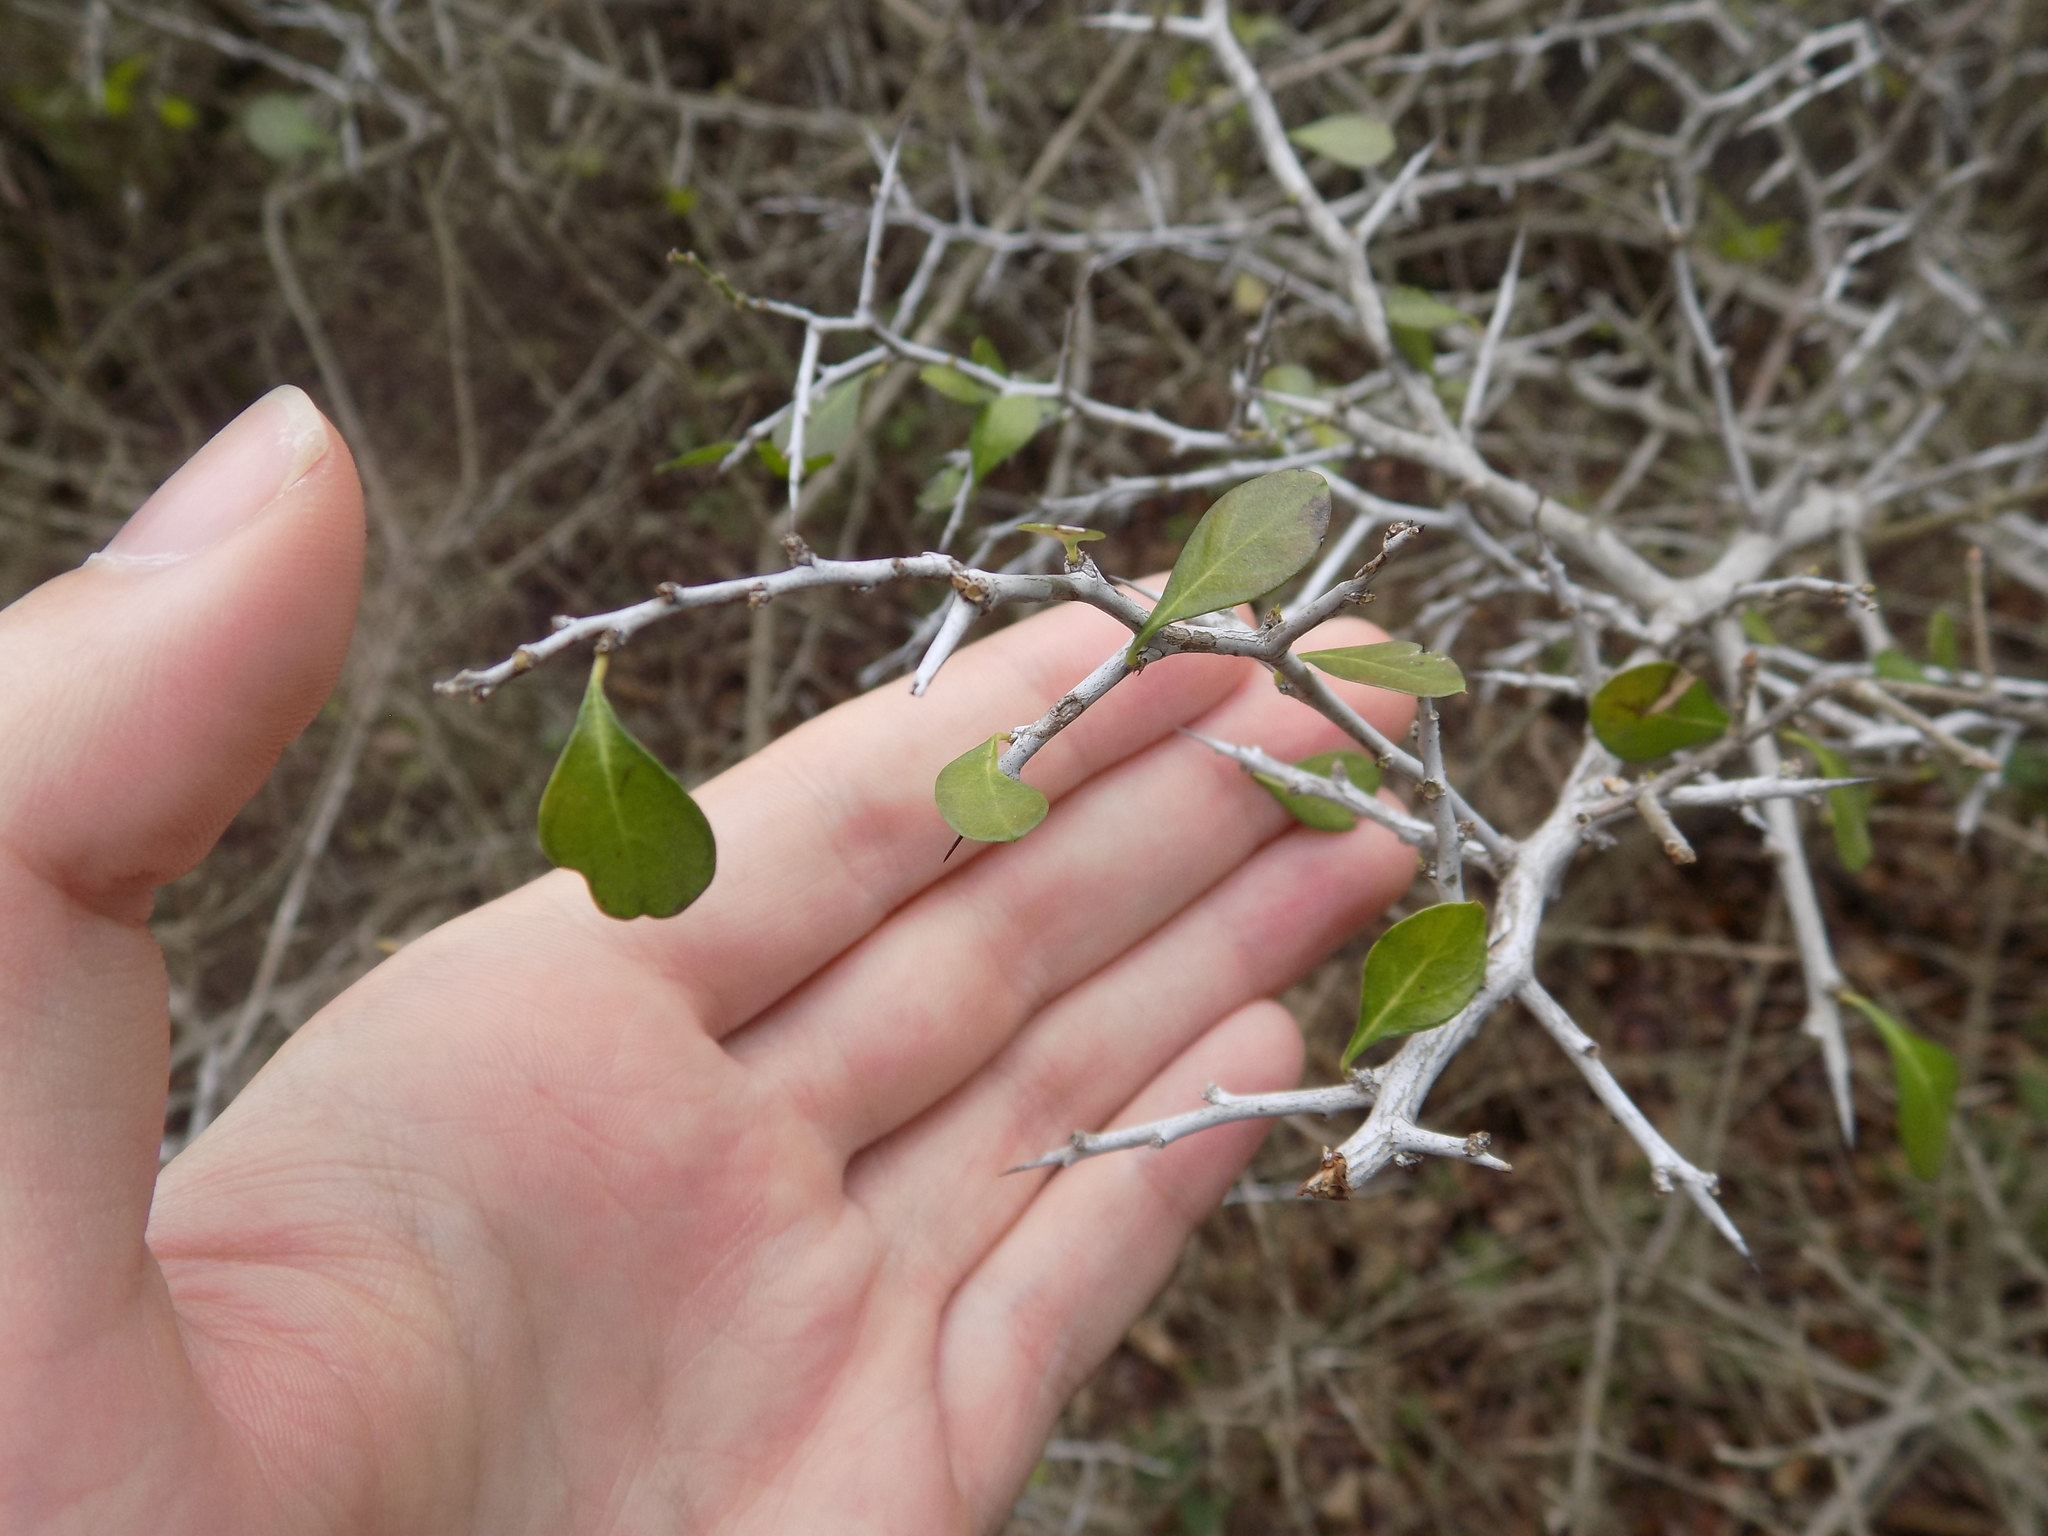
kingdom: Plantae
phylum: Tracheophyta
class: Magnoliopsida
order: Rosales
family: Rhamnaceae
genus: Condalia
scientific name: Condalia hookeri
